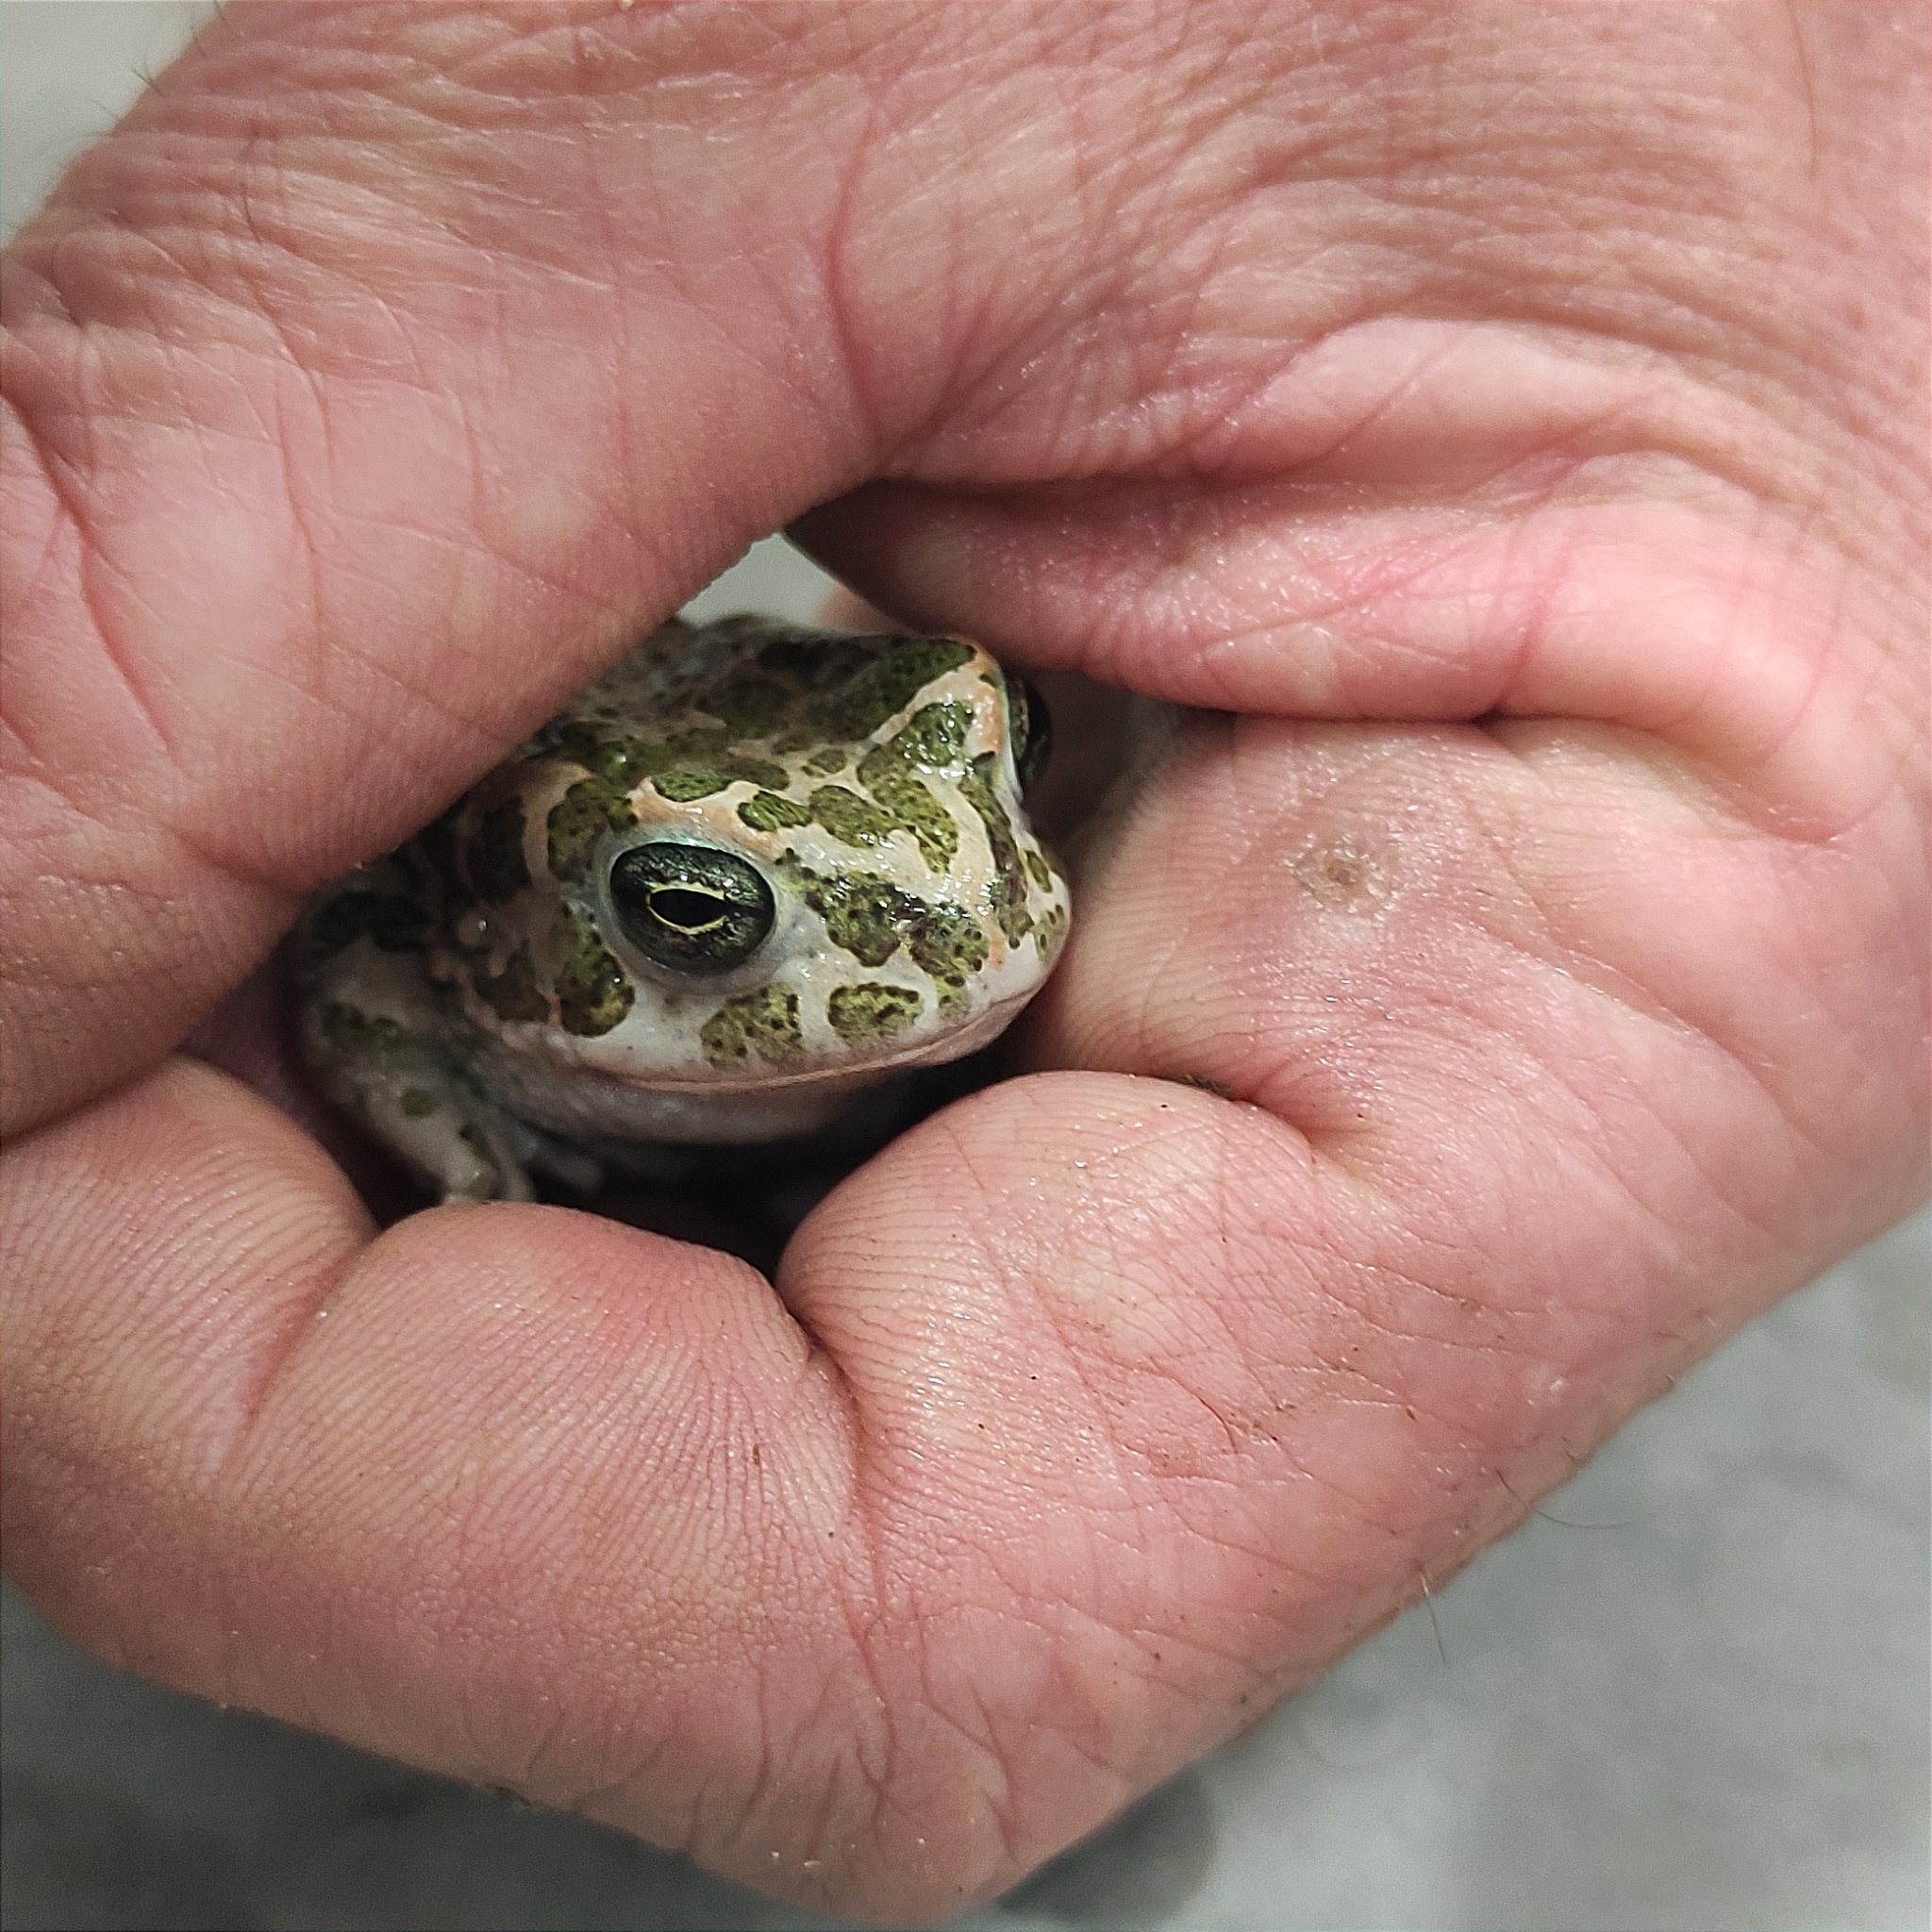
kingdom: Animalia
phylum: Chordata
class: Amphibia
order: Anura
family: Bufonidae
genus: Bufotes
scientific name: Bufotes viridis
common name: European green toad
